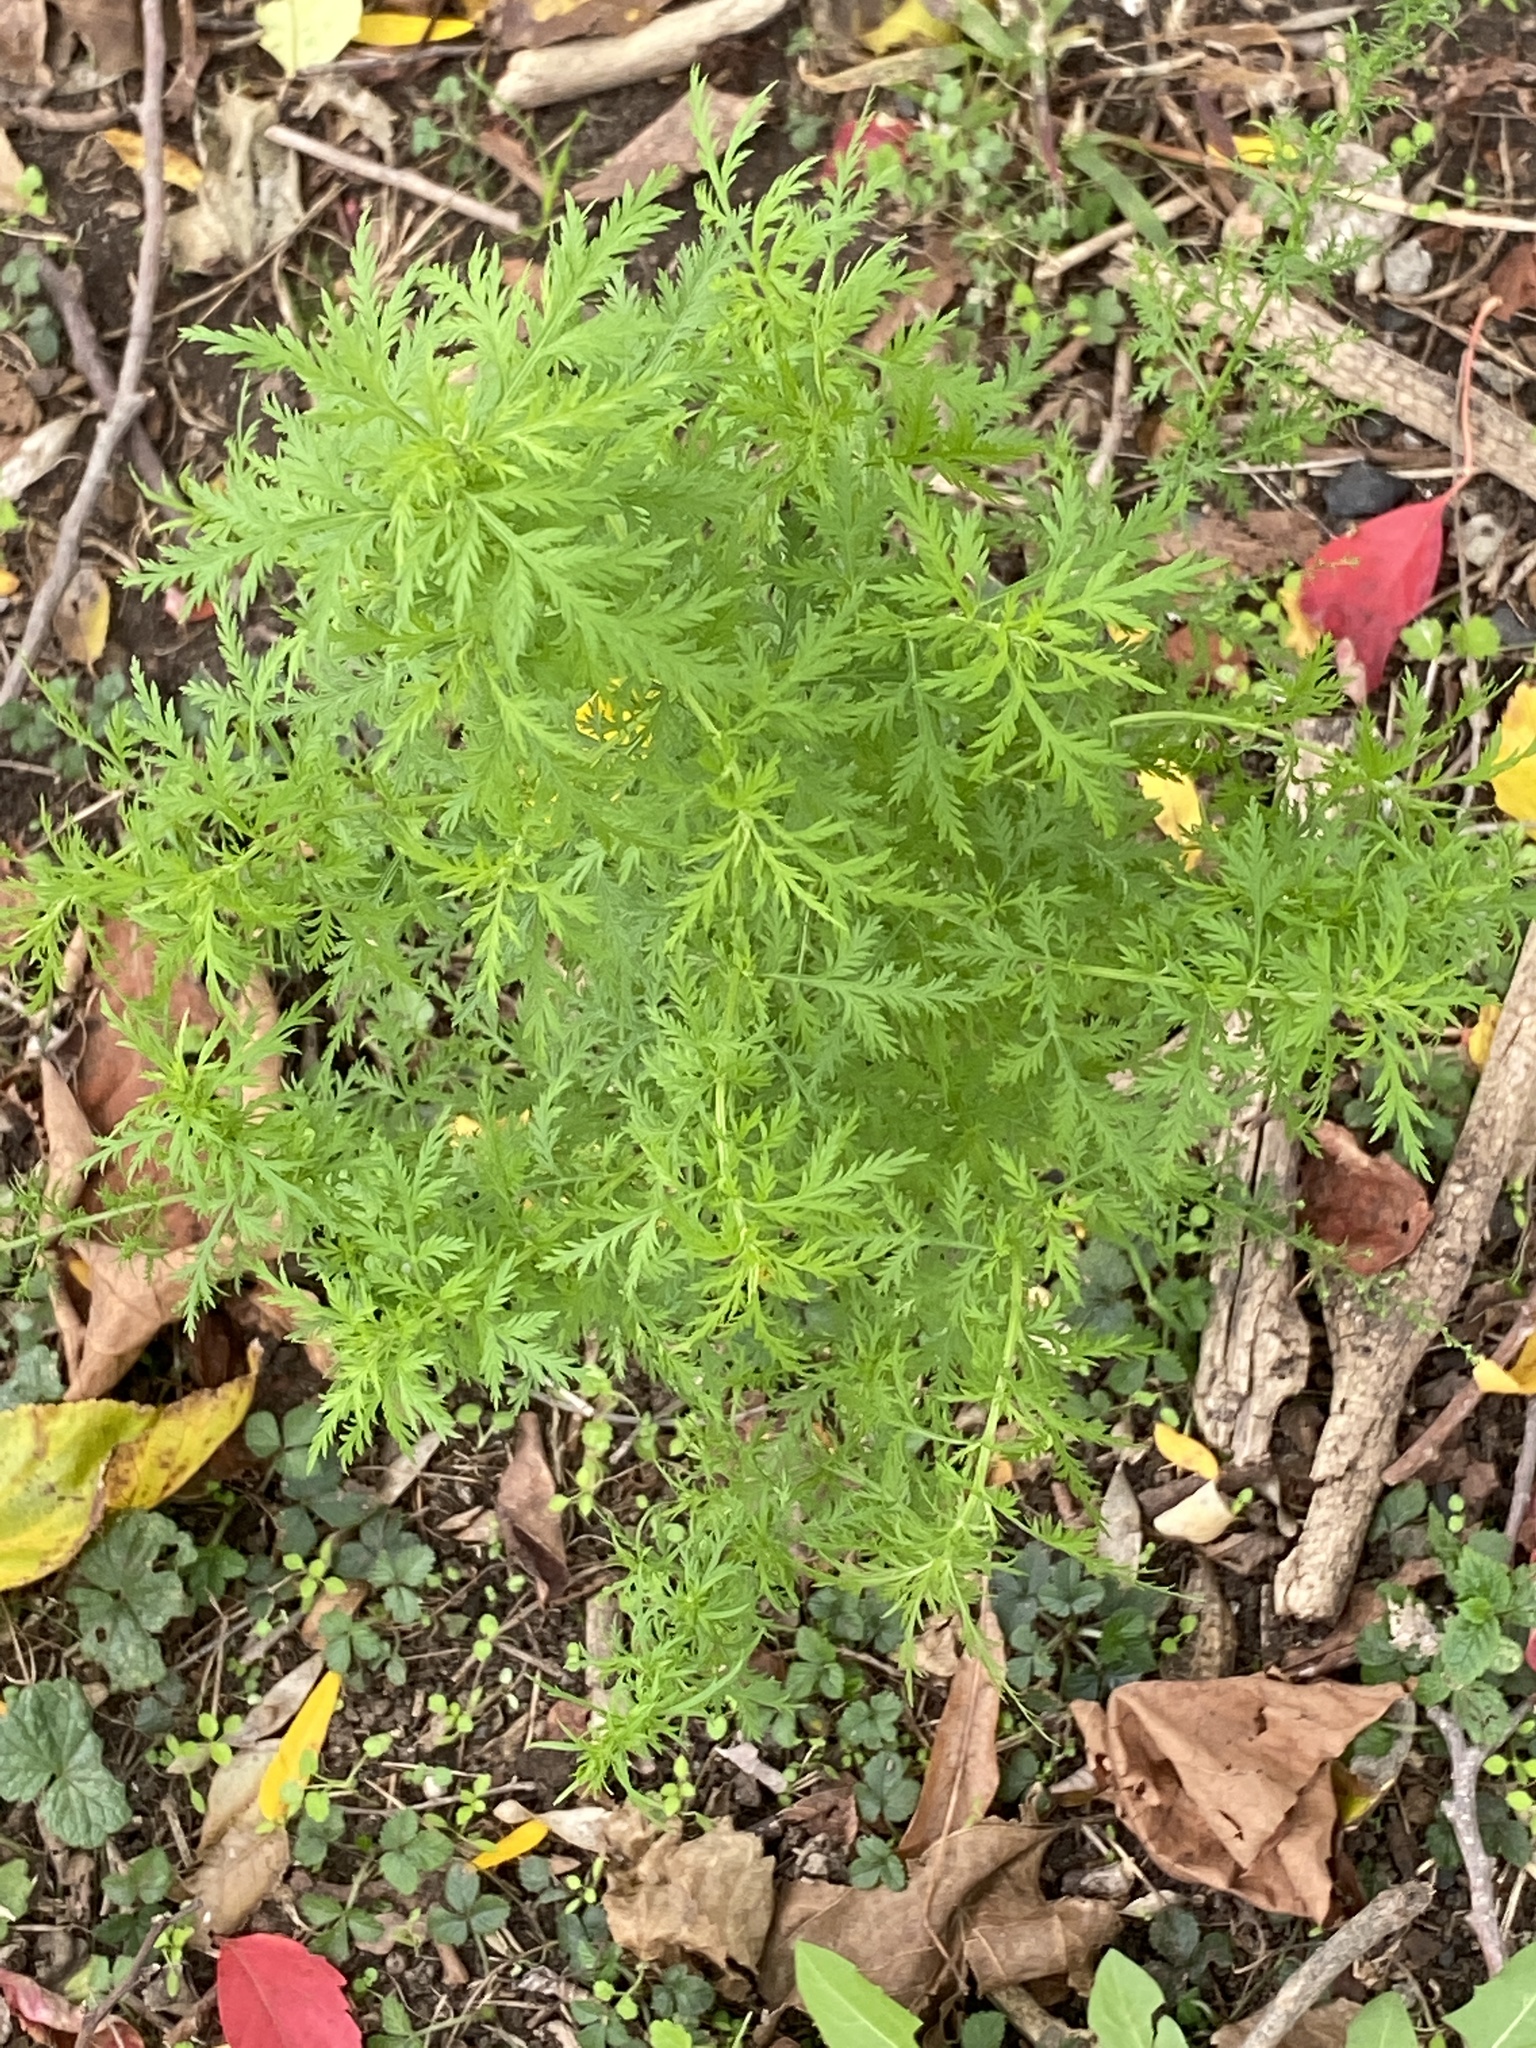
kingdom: Plantae
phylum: Tracheophyta
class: Magnoliopsida
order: Asterales
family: Asteraceae
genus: Artemisia
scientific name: Artemisia annua
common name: Sweet sagewort
